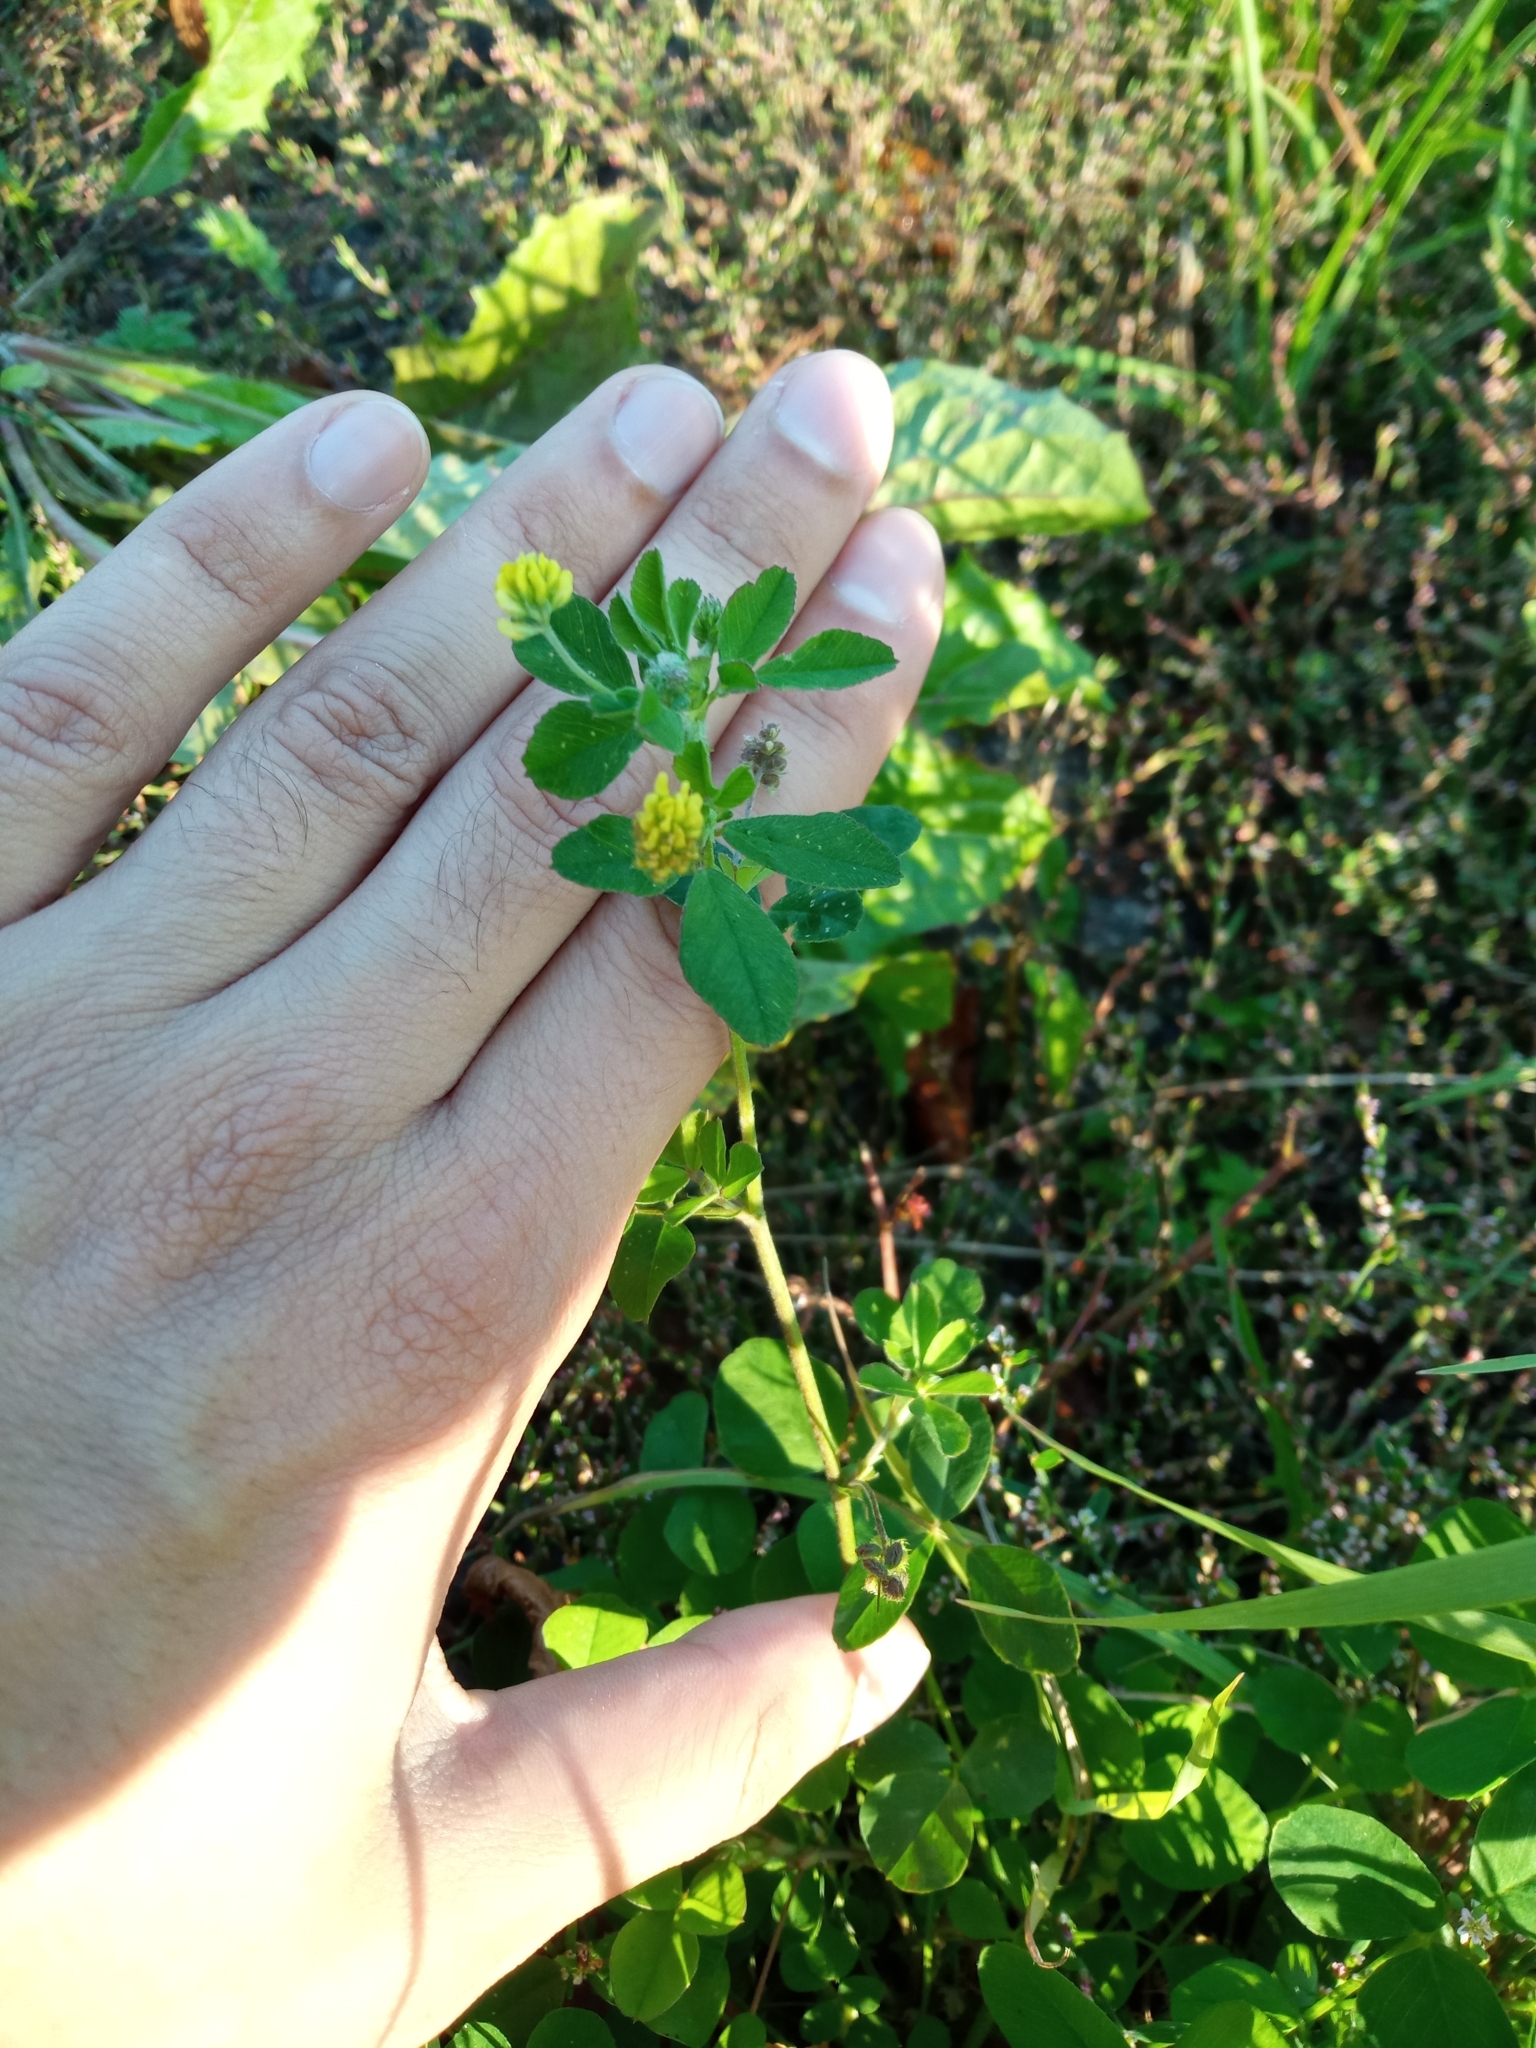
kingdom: Plantae
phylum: Tracheophyta
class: Magnoliopsida
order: Fabales
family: Fabaceae
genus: Medicago
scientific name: Medicago lupulina
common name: Black medick
